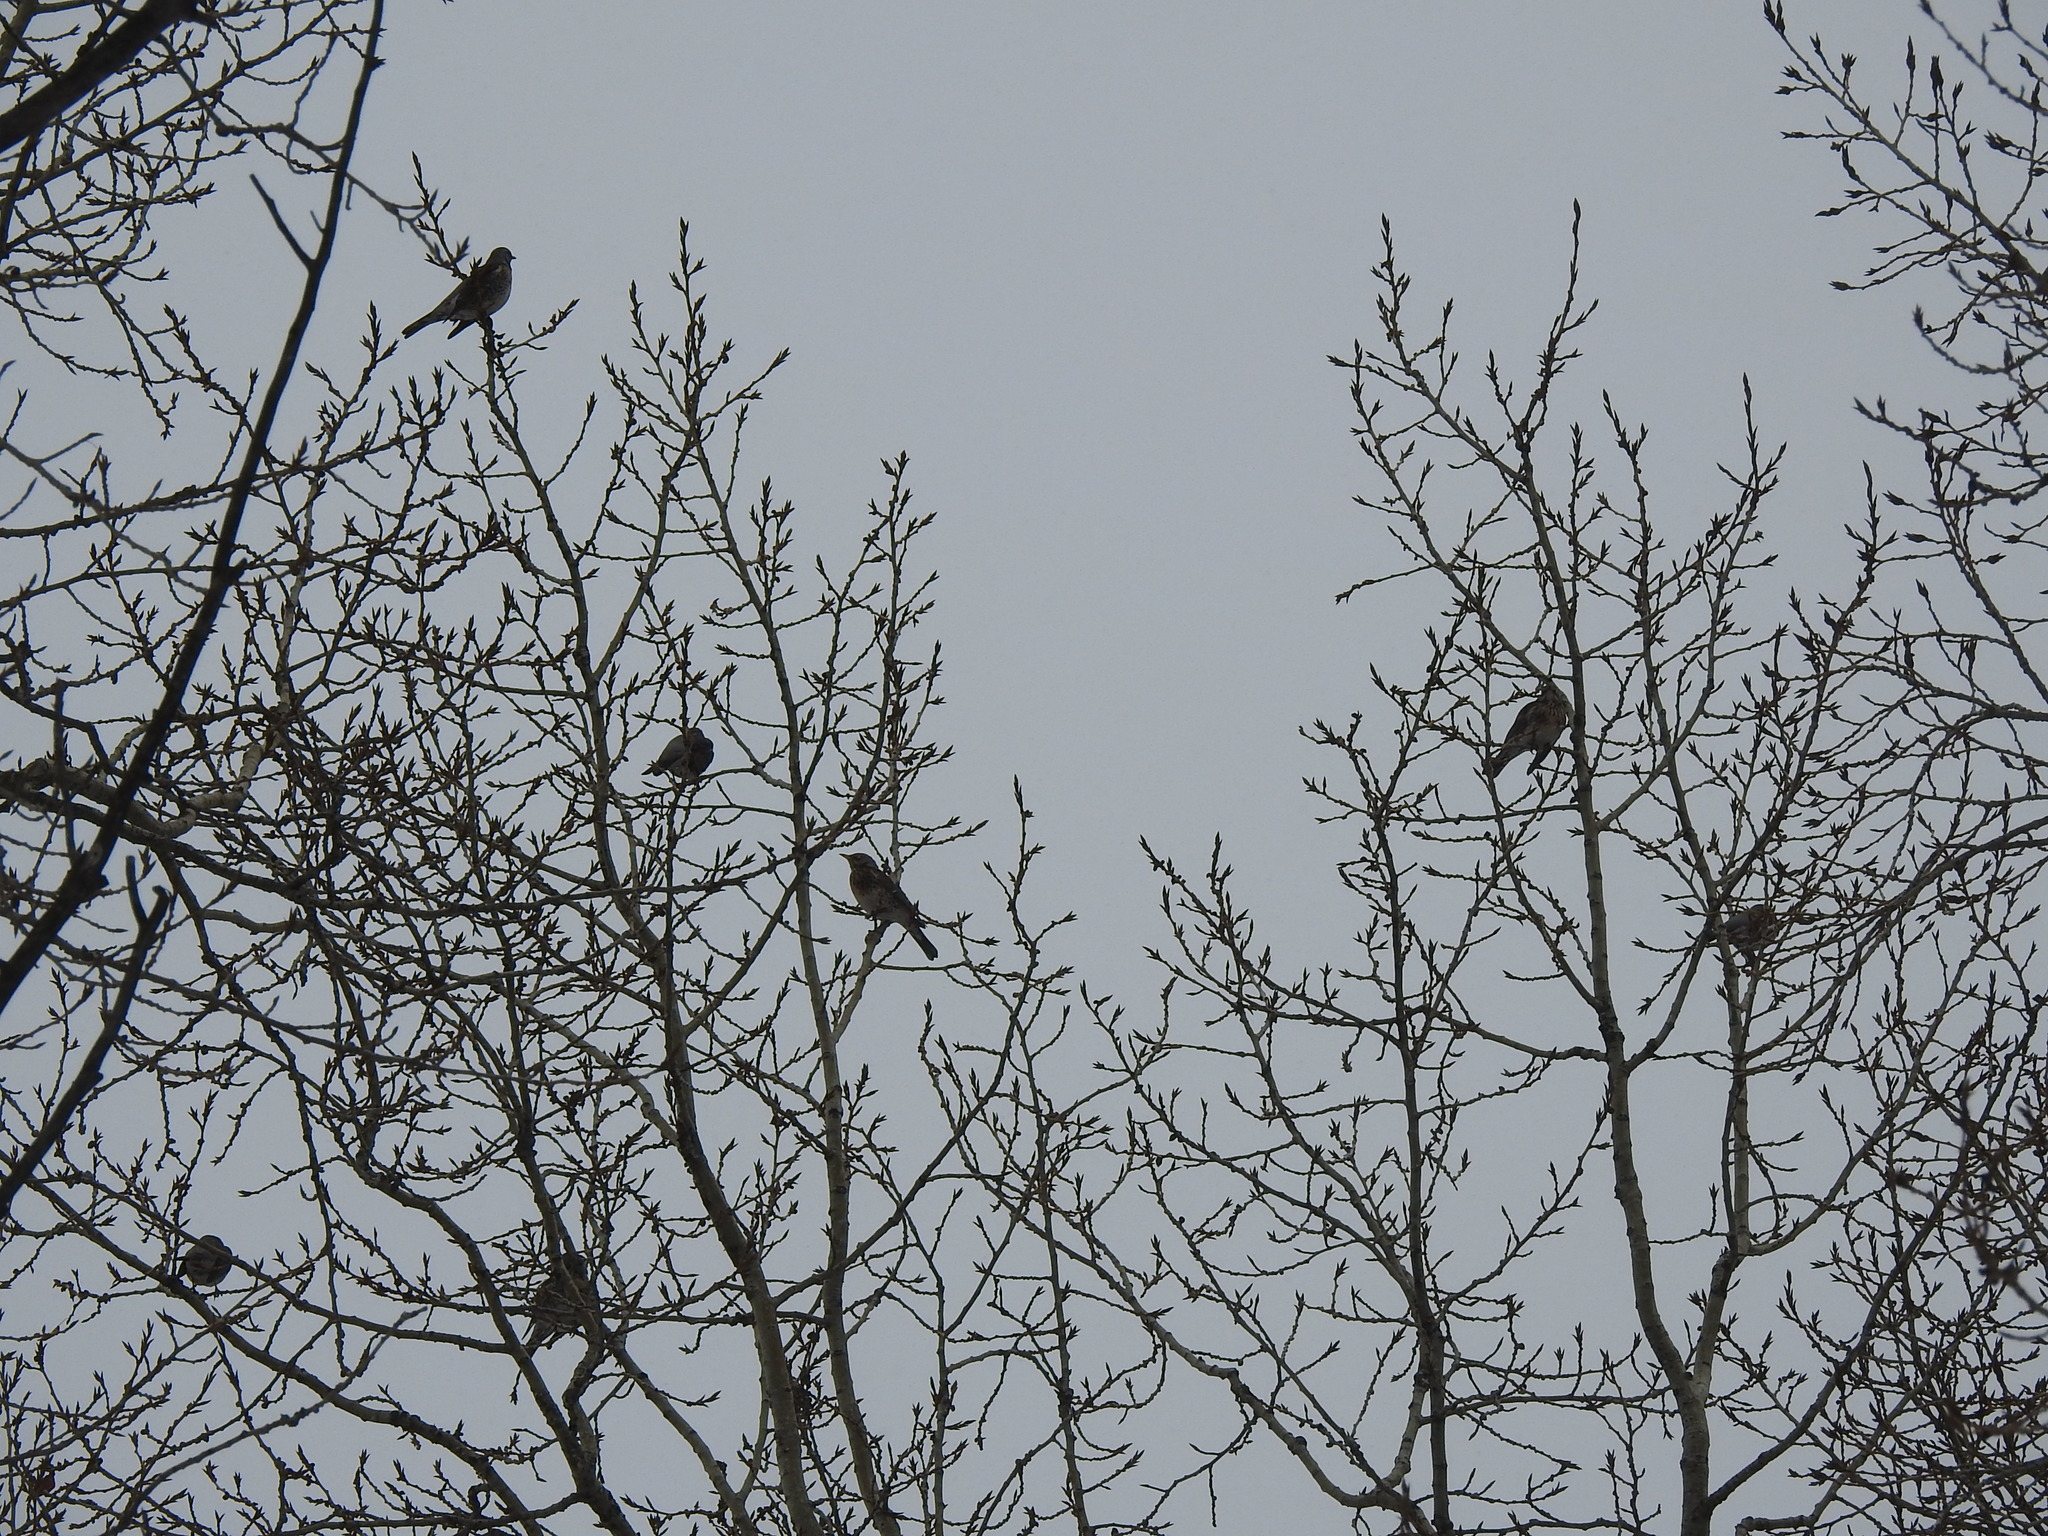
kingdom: Animalia
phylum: Chordata
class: Aves
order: Passeriformes
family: Turdidae
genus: Turdus
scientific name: Turdus pilaris
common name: Fieldfare
